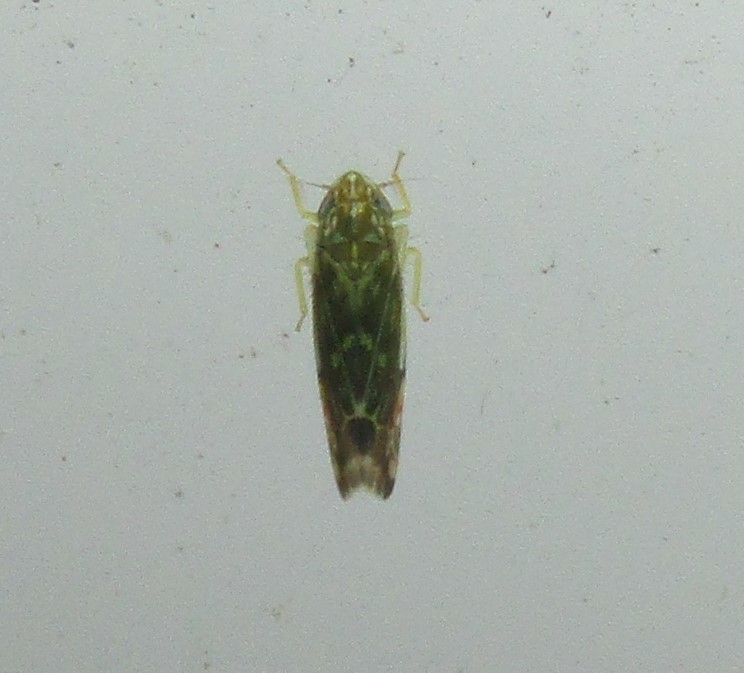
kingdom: Animalia
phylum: Arthropoda
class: Insecta
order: Hemiptera
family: Cicadellidae
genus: Erasmoneura
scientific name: Erasmoneura vulnerata
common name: The wounded leafhopper
